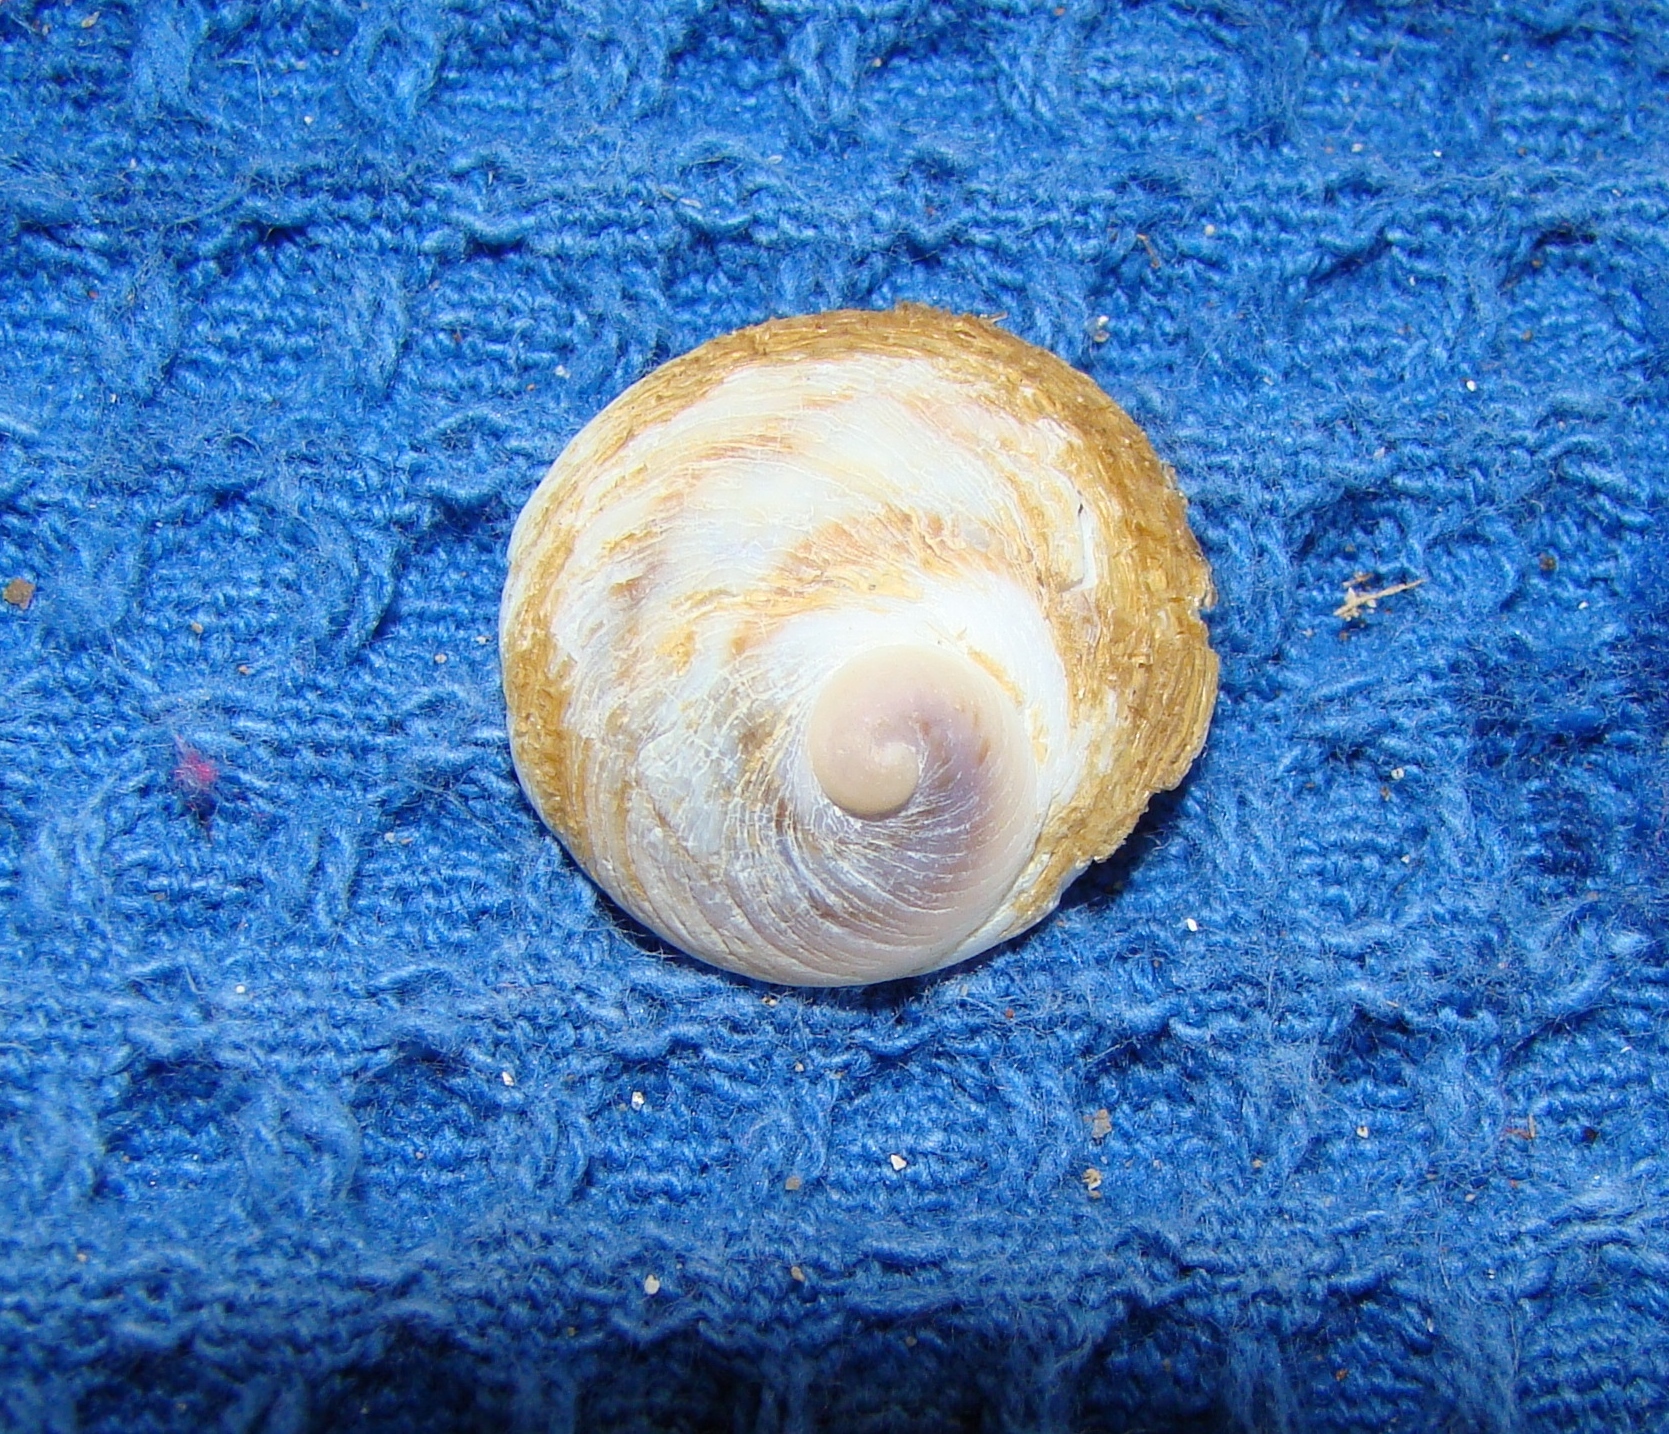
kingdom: Animalia
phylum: Mollusca
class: Gastropoda
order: Littorinimorpha
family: Calyptraeidae
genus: Sigapatella
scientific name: Sigapatella novaezelandiae
